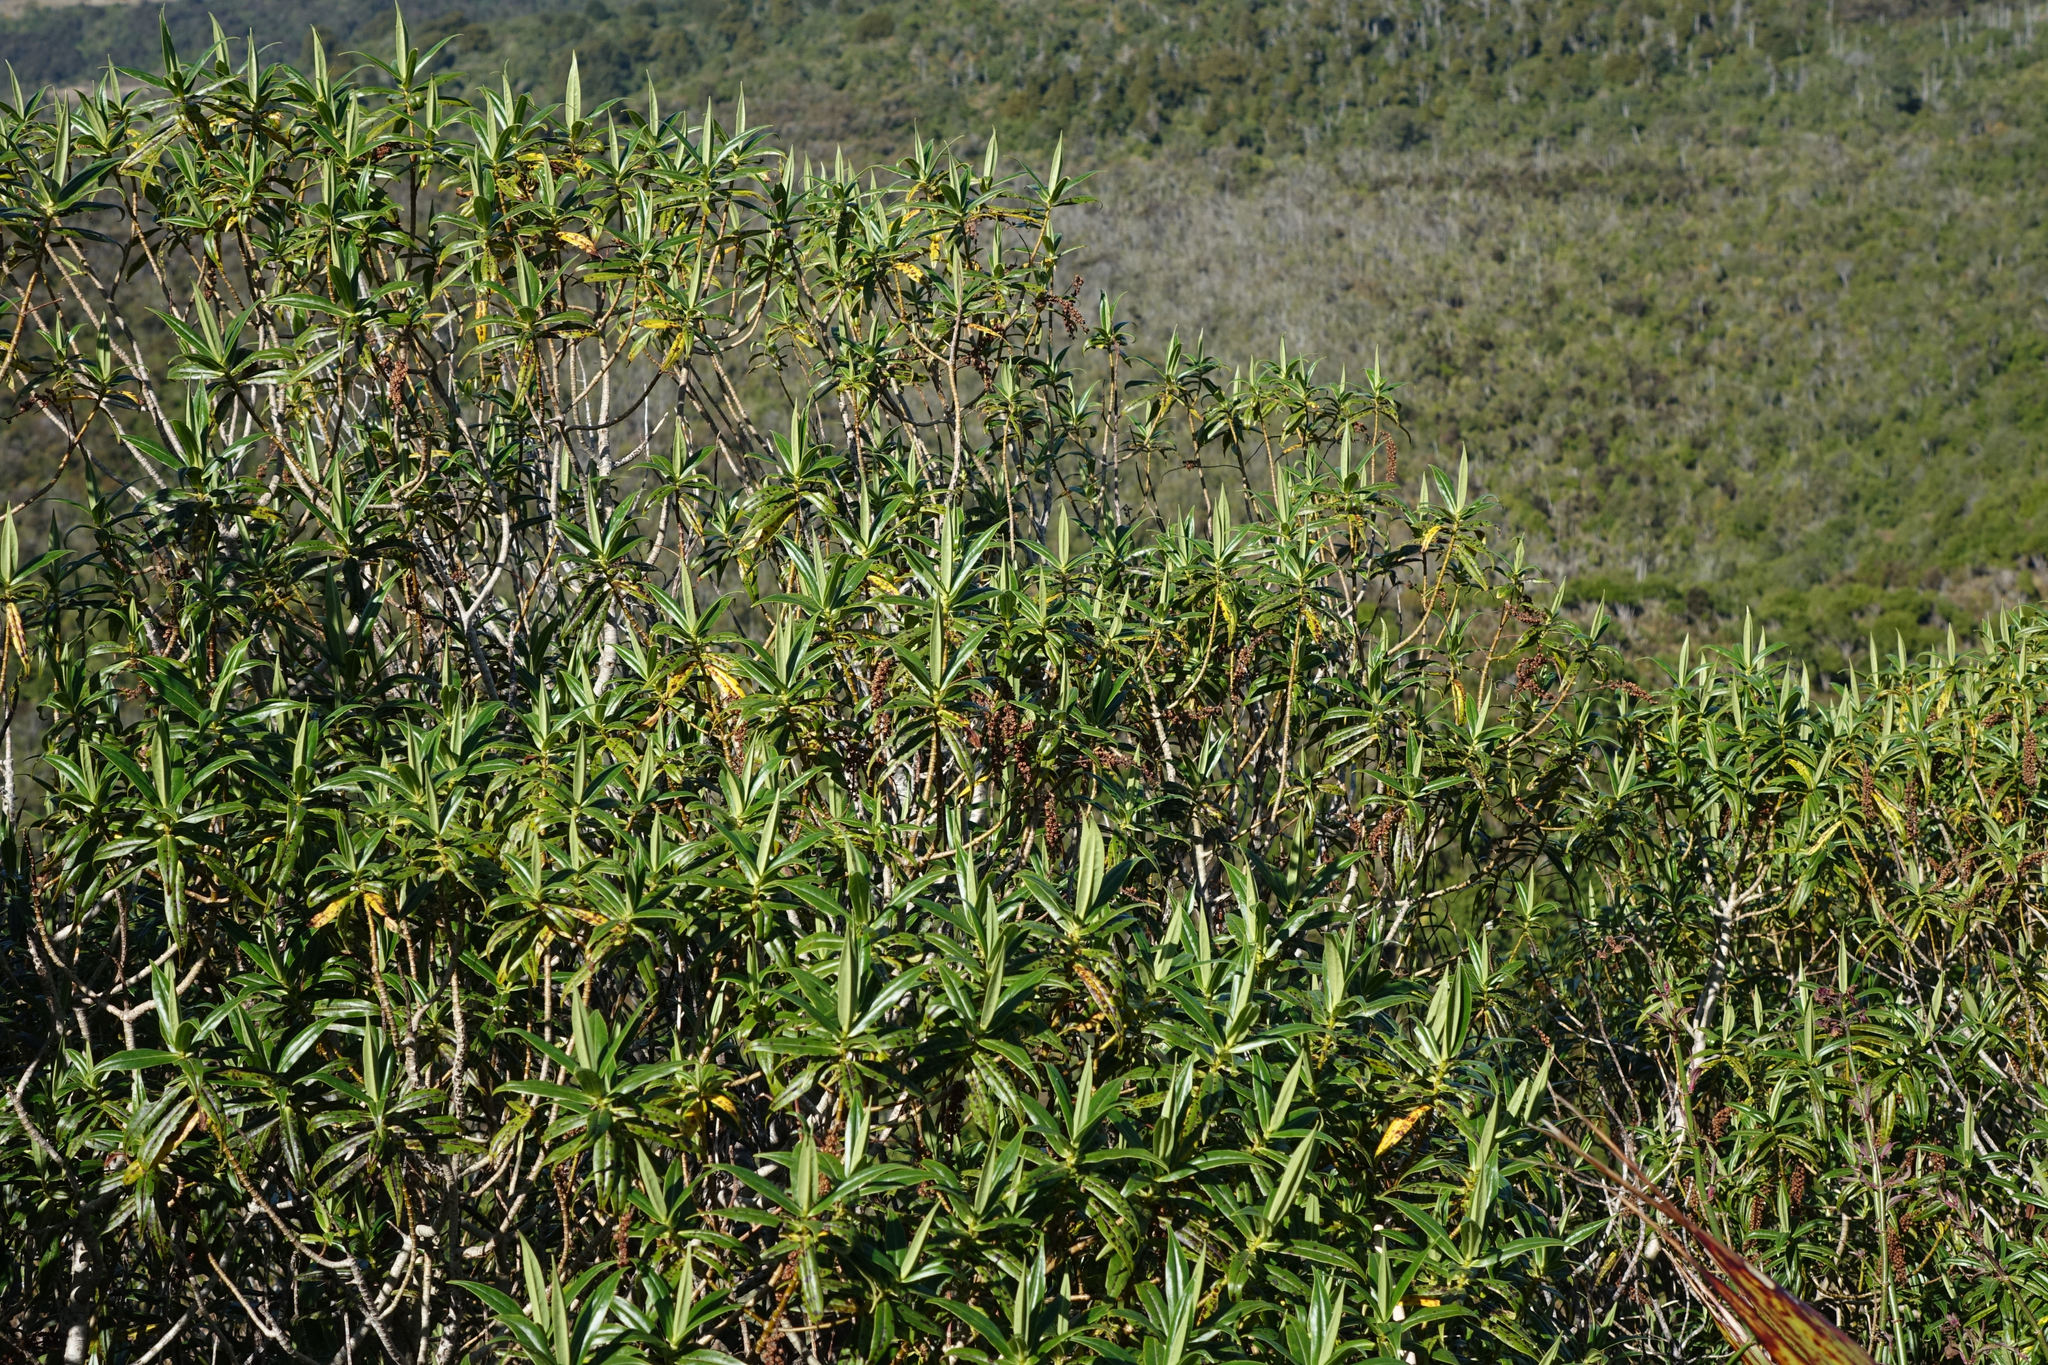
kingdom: Plantae
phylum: Tracheophyta
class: Magnoliopsida
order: Lamiales
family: Plantaginaceae
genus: Veronica
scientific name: Veronica salicifolia
